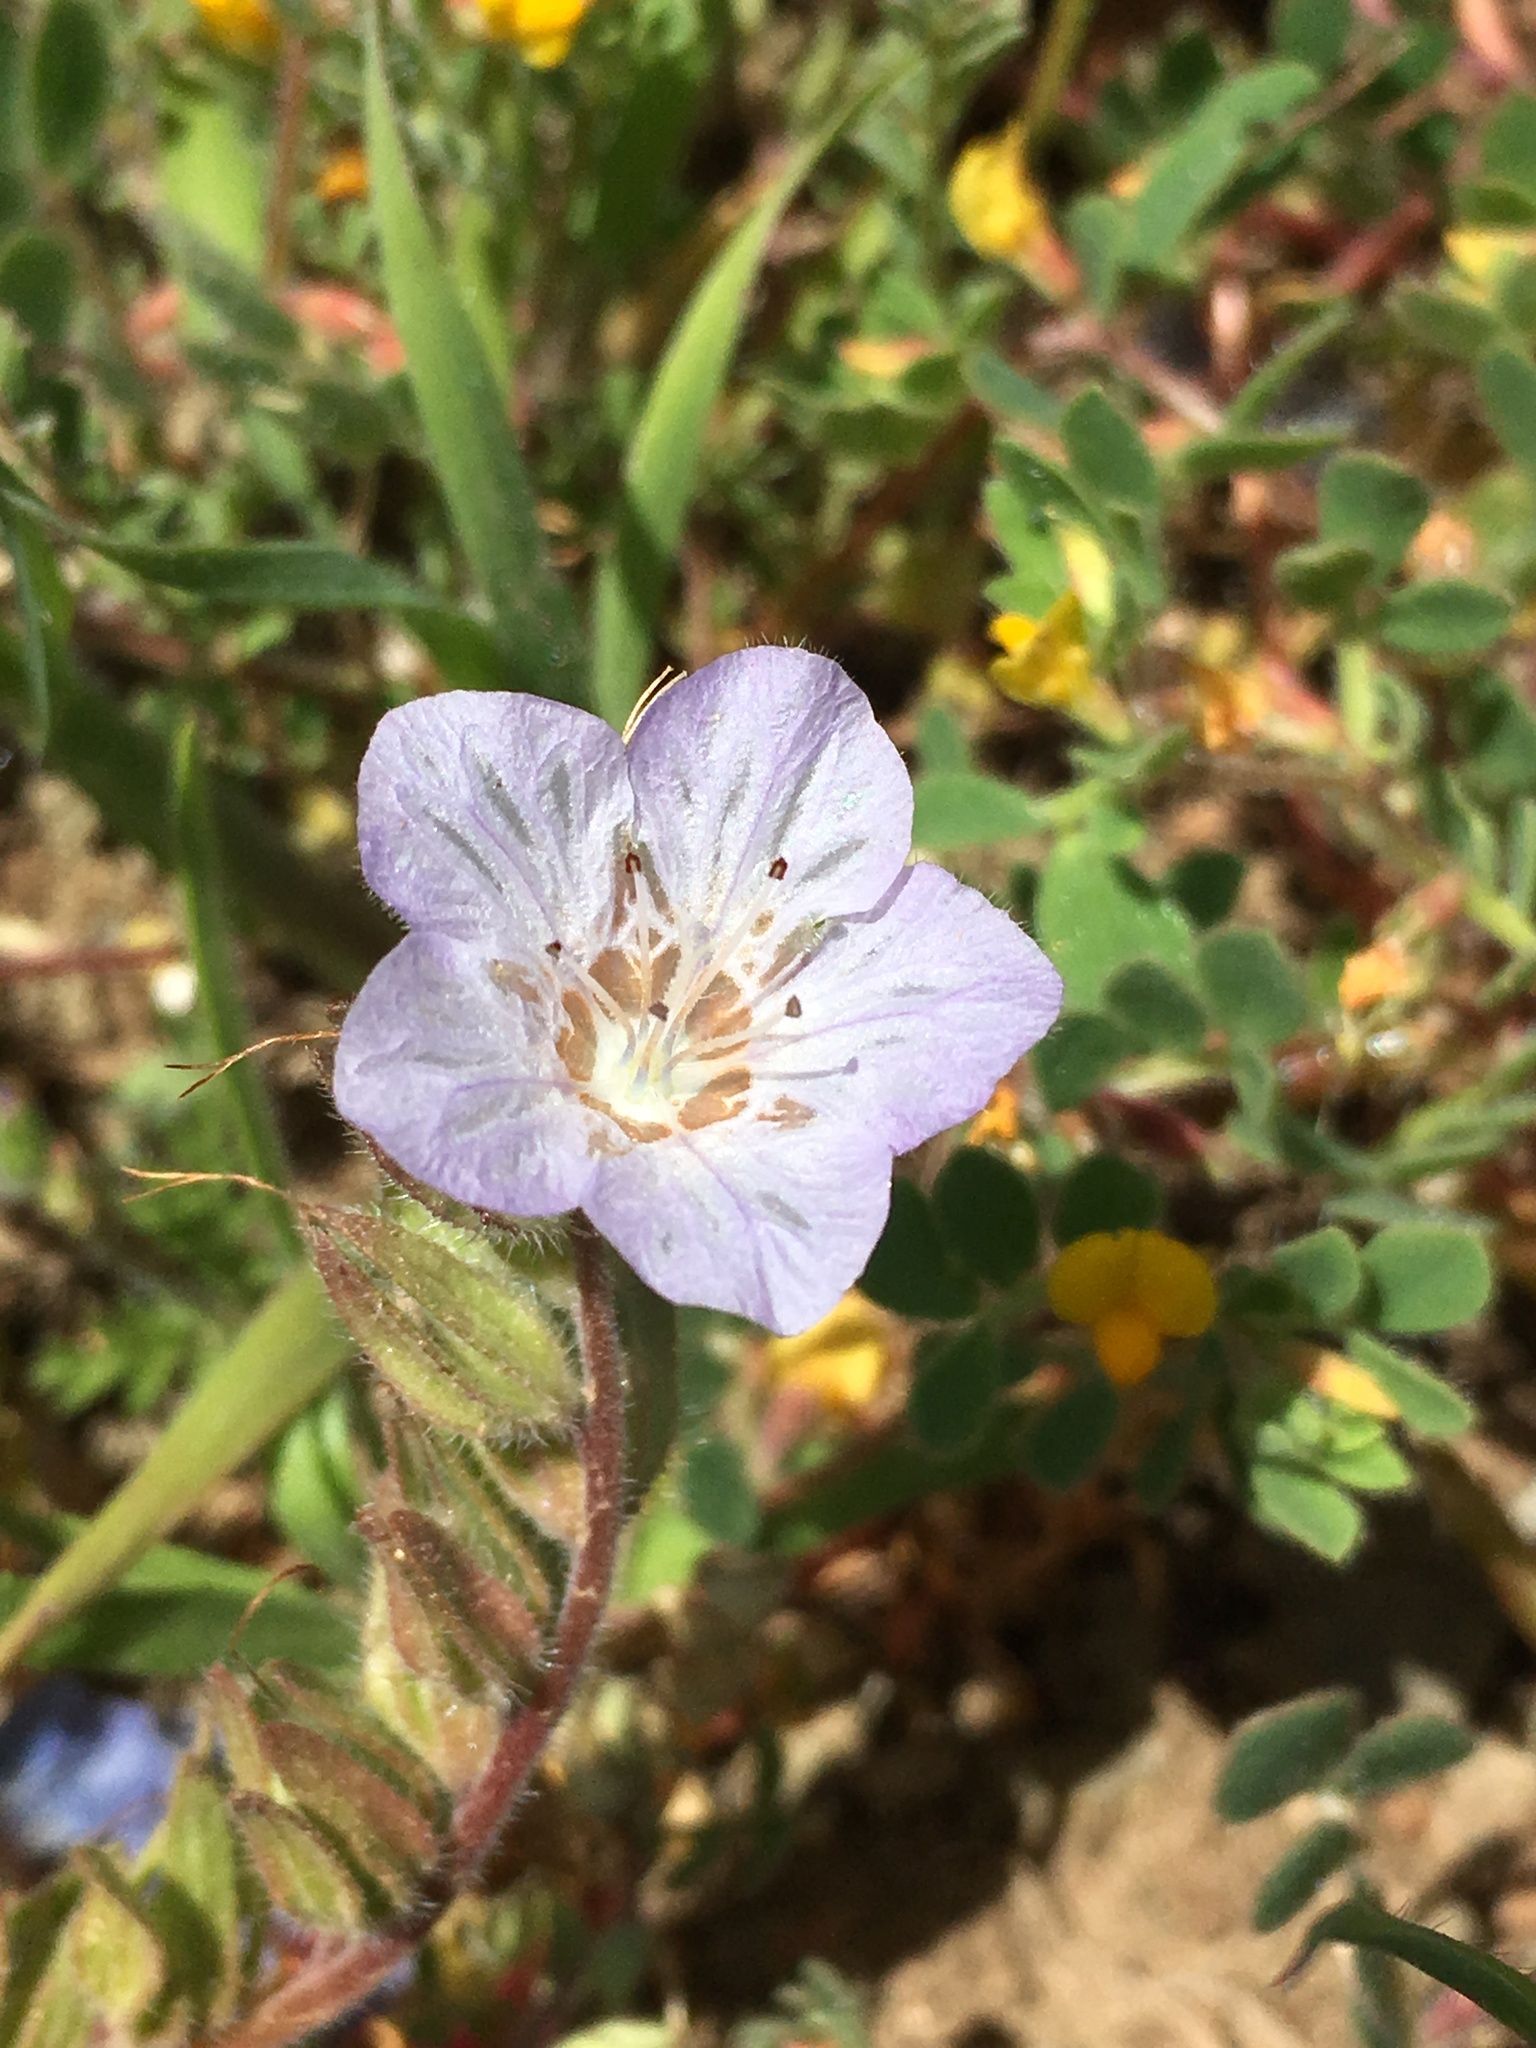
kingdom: Plantae
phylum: Tracheophyta
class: Magnoliopsida
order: Boraginales
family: Hydrophyllaceae
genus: Phacelia
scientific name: Phacelia divaricata
